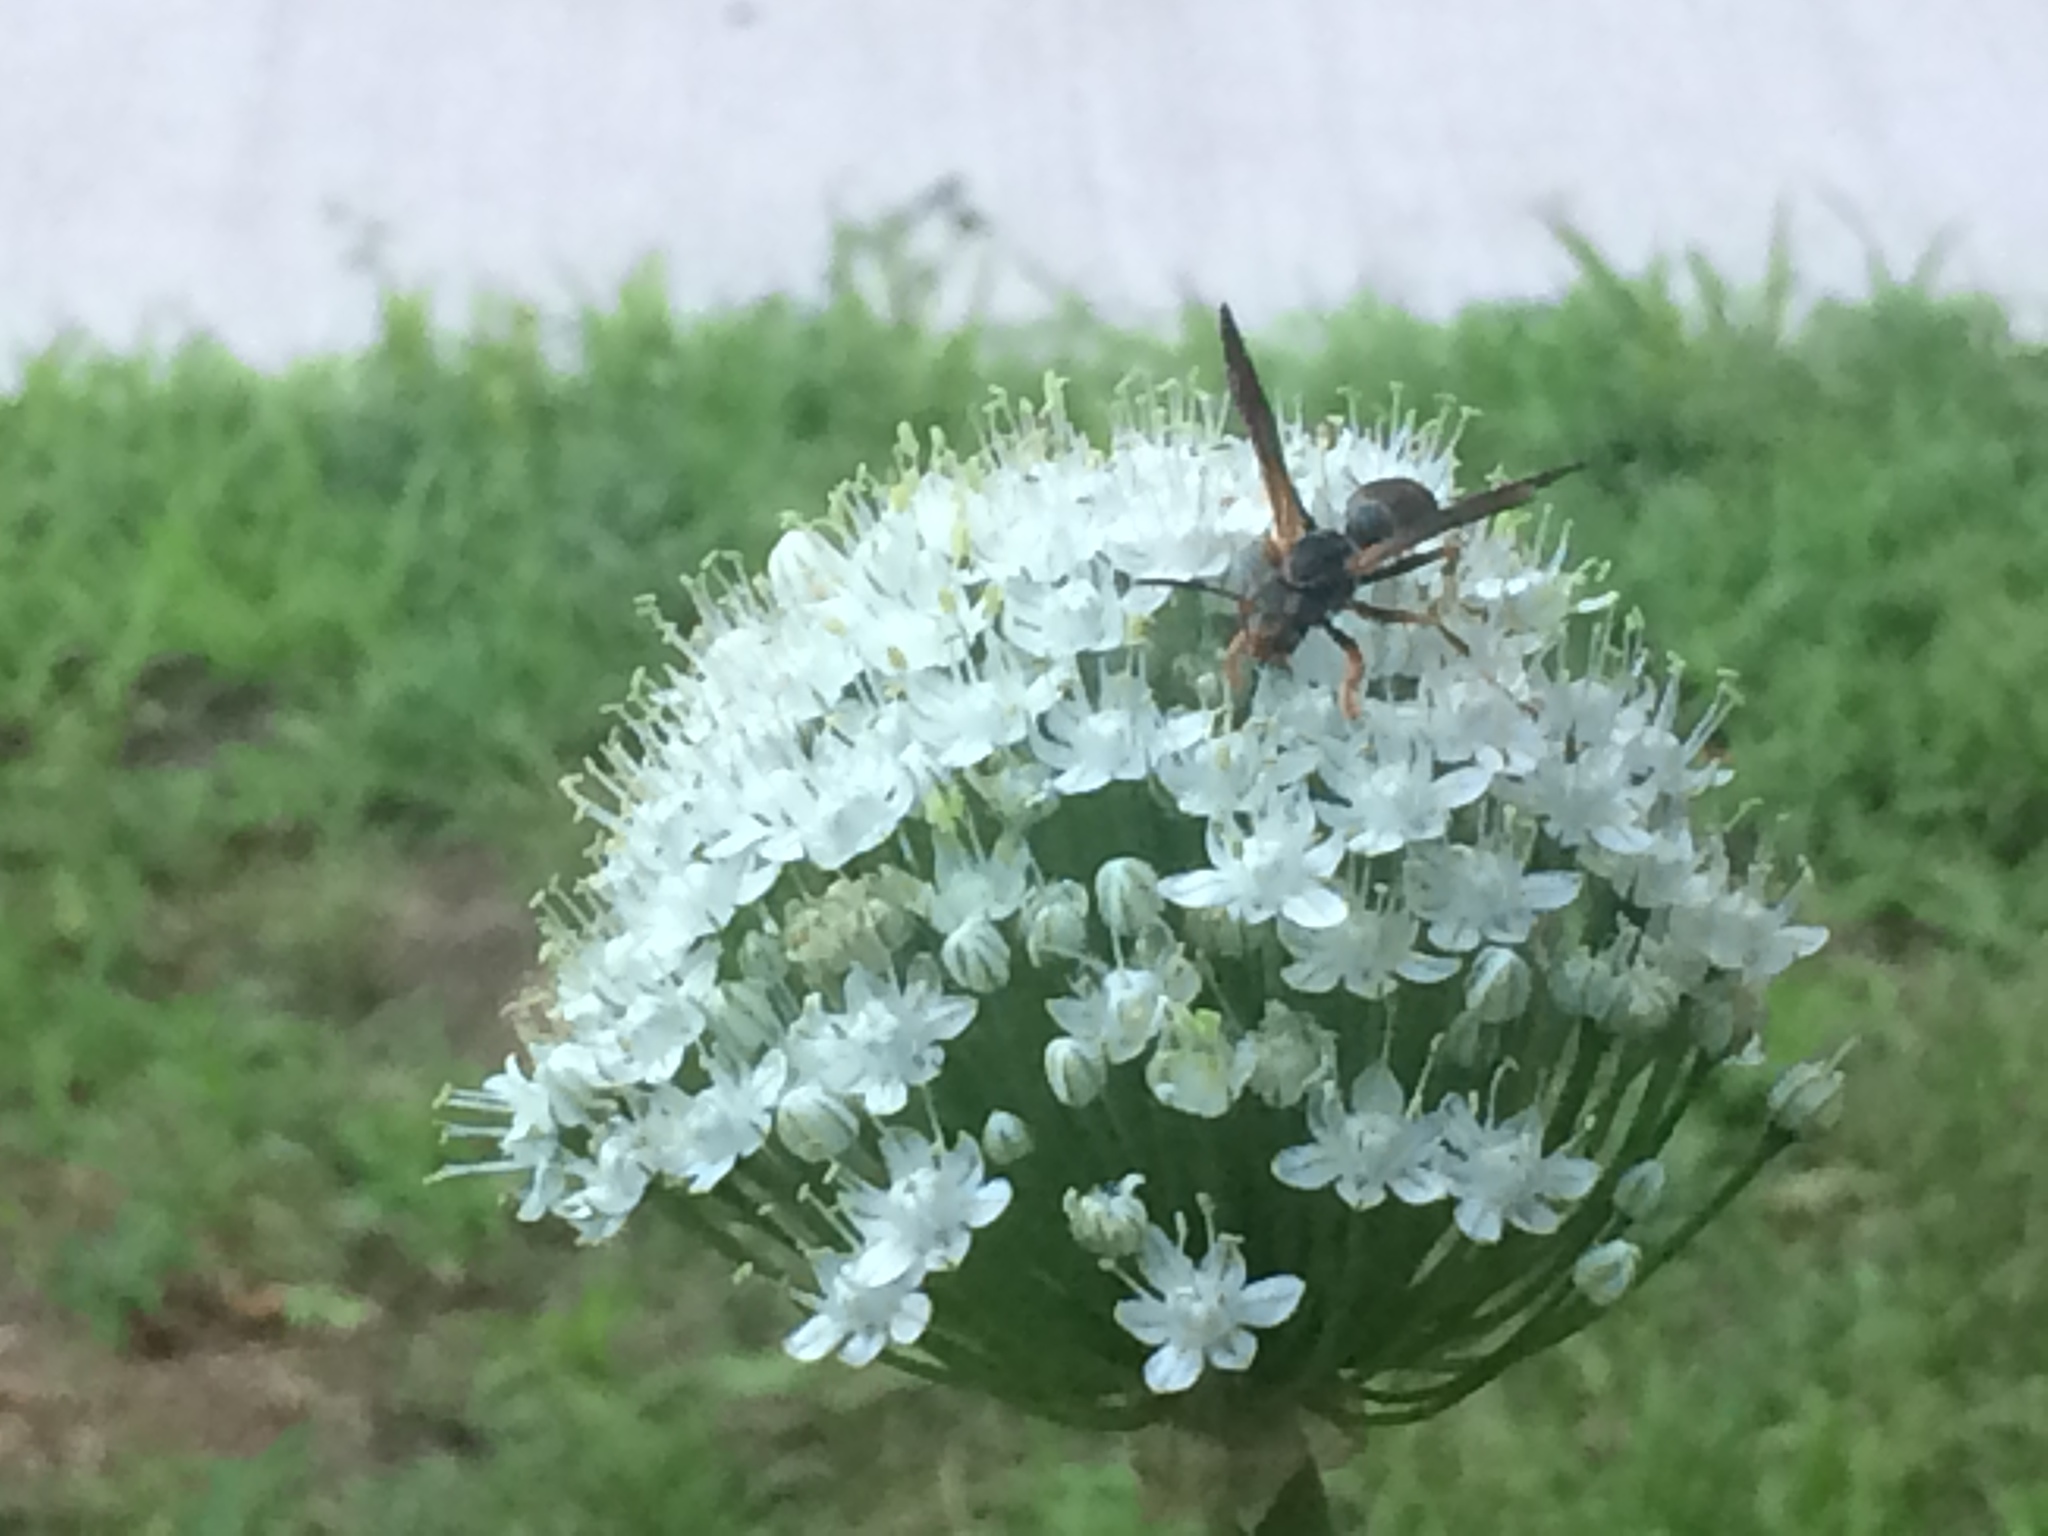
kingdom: Animalia
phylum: Arthropoda
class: Insecta
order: Hymenoptera
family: Eumenidae
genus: Polistes
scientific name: Polistes fuscatus
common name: Dark paper wasp
